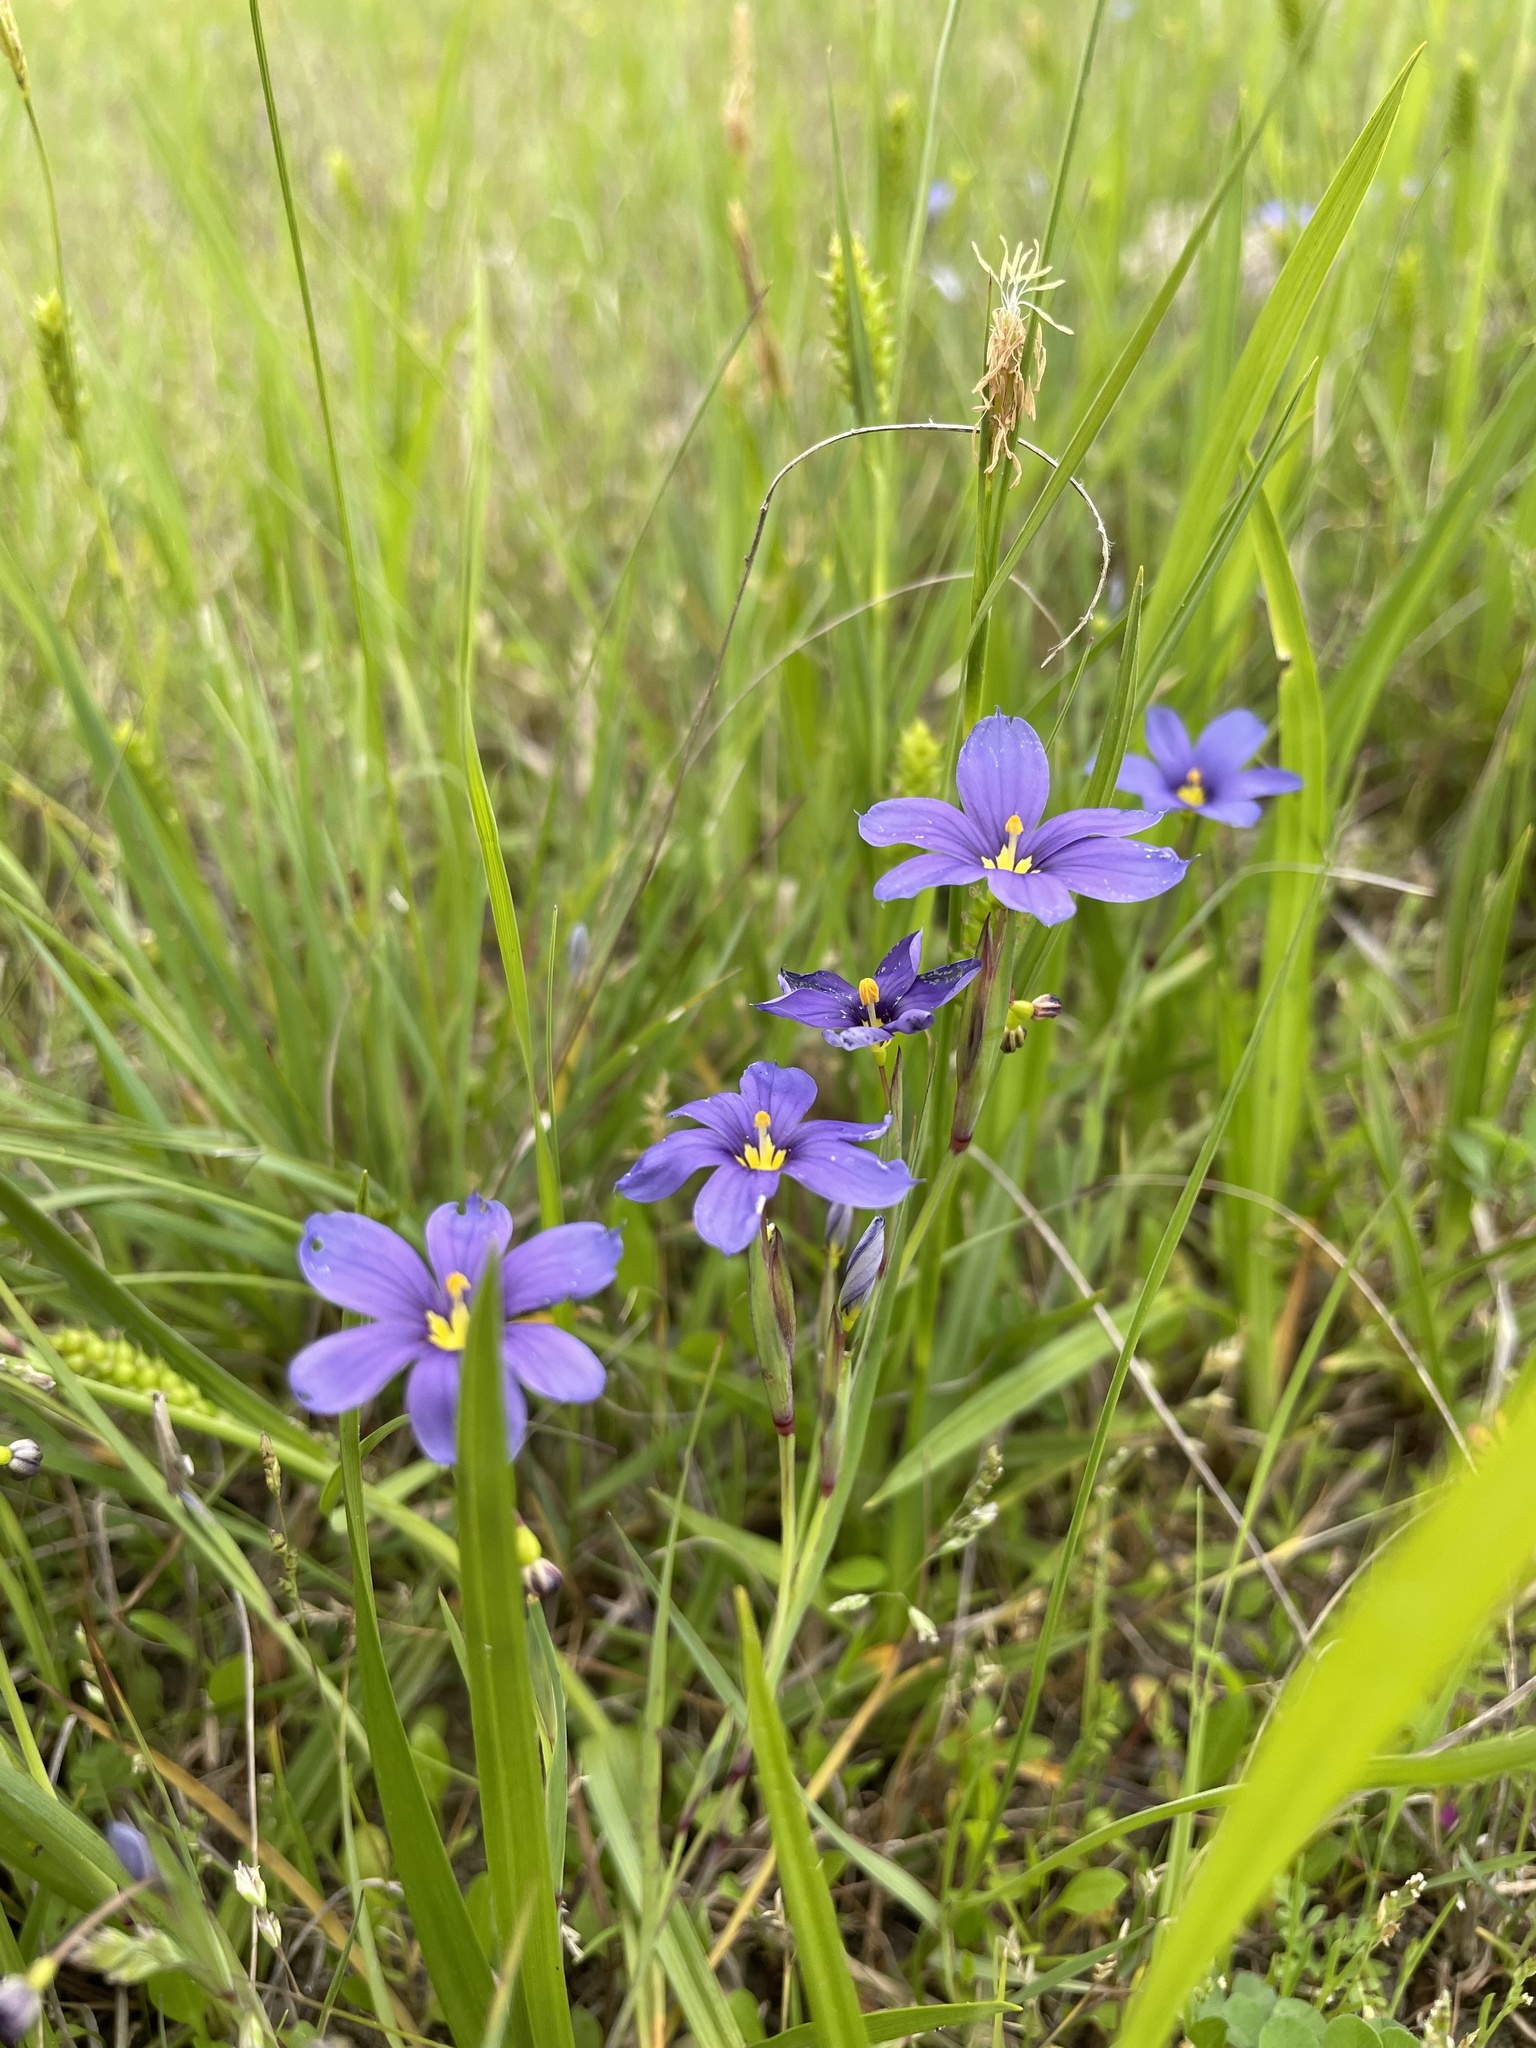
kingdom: Plantae
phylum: Tracheophyta
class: Liliopsida
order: Asparagales
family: Iridaceae
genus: Sisyrinchium
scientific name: Sisyrinchium pruinosum
